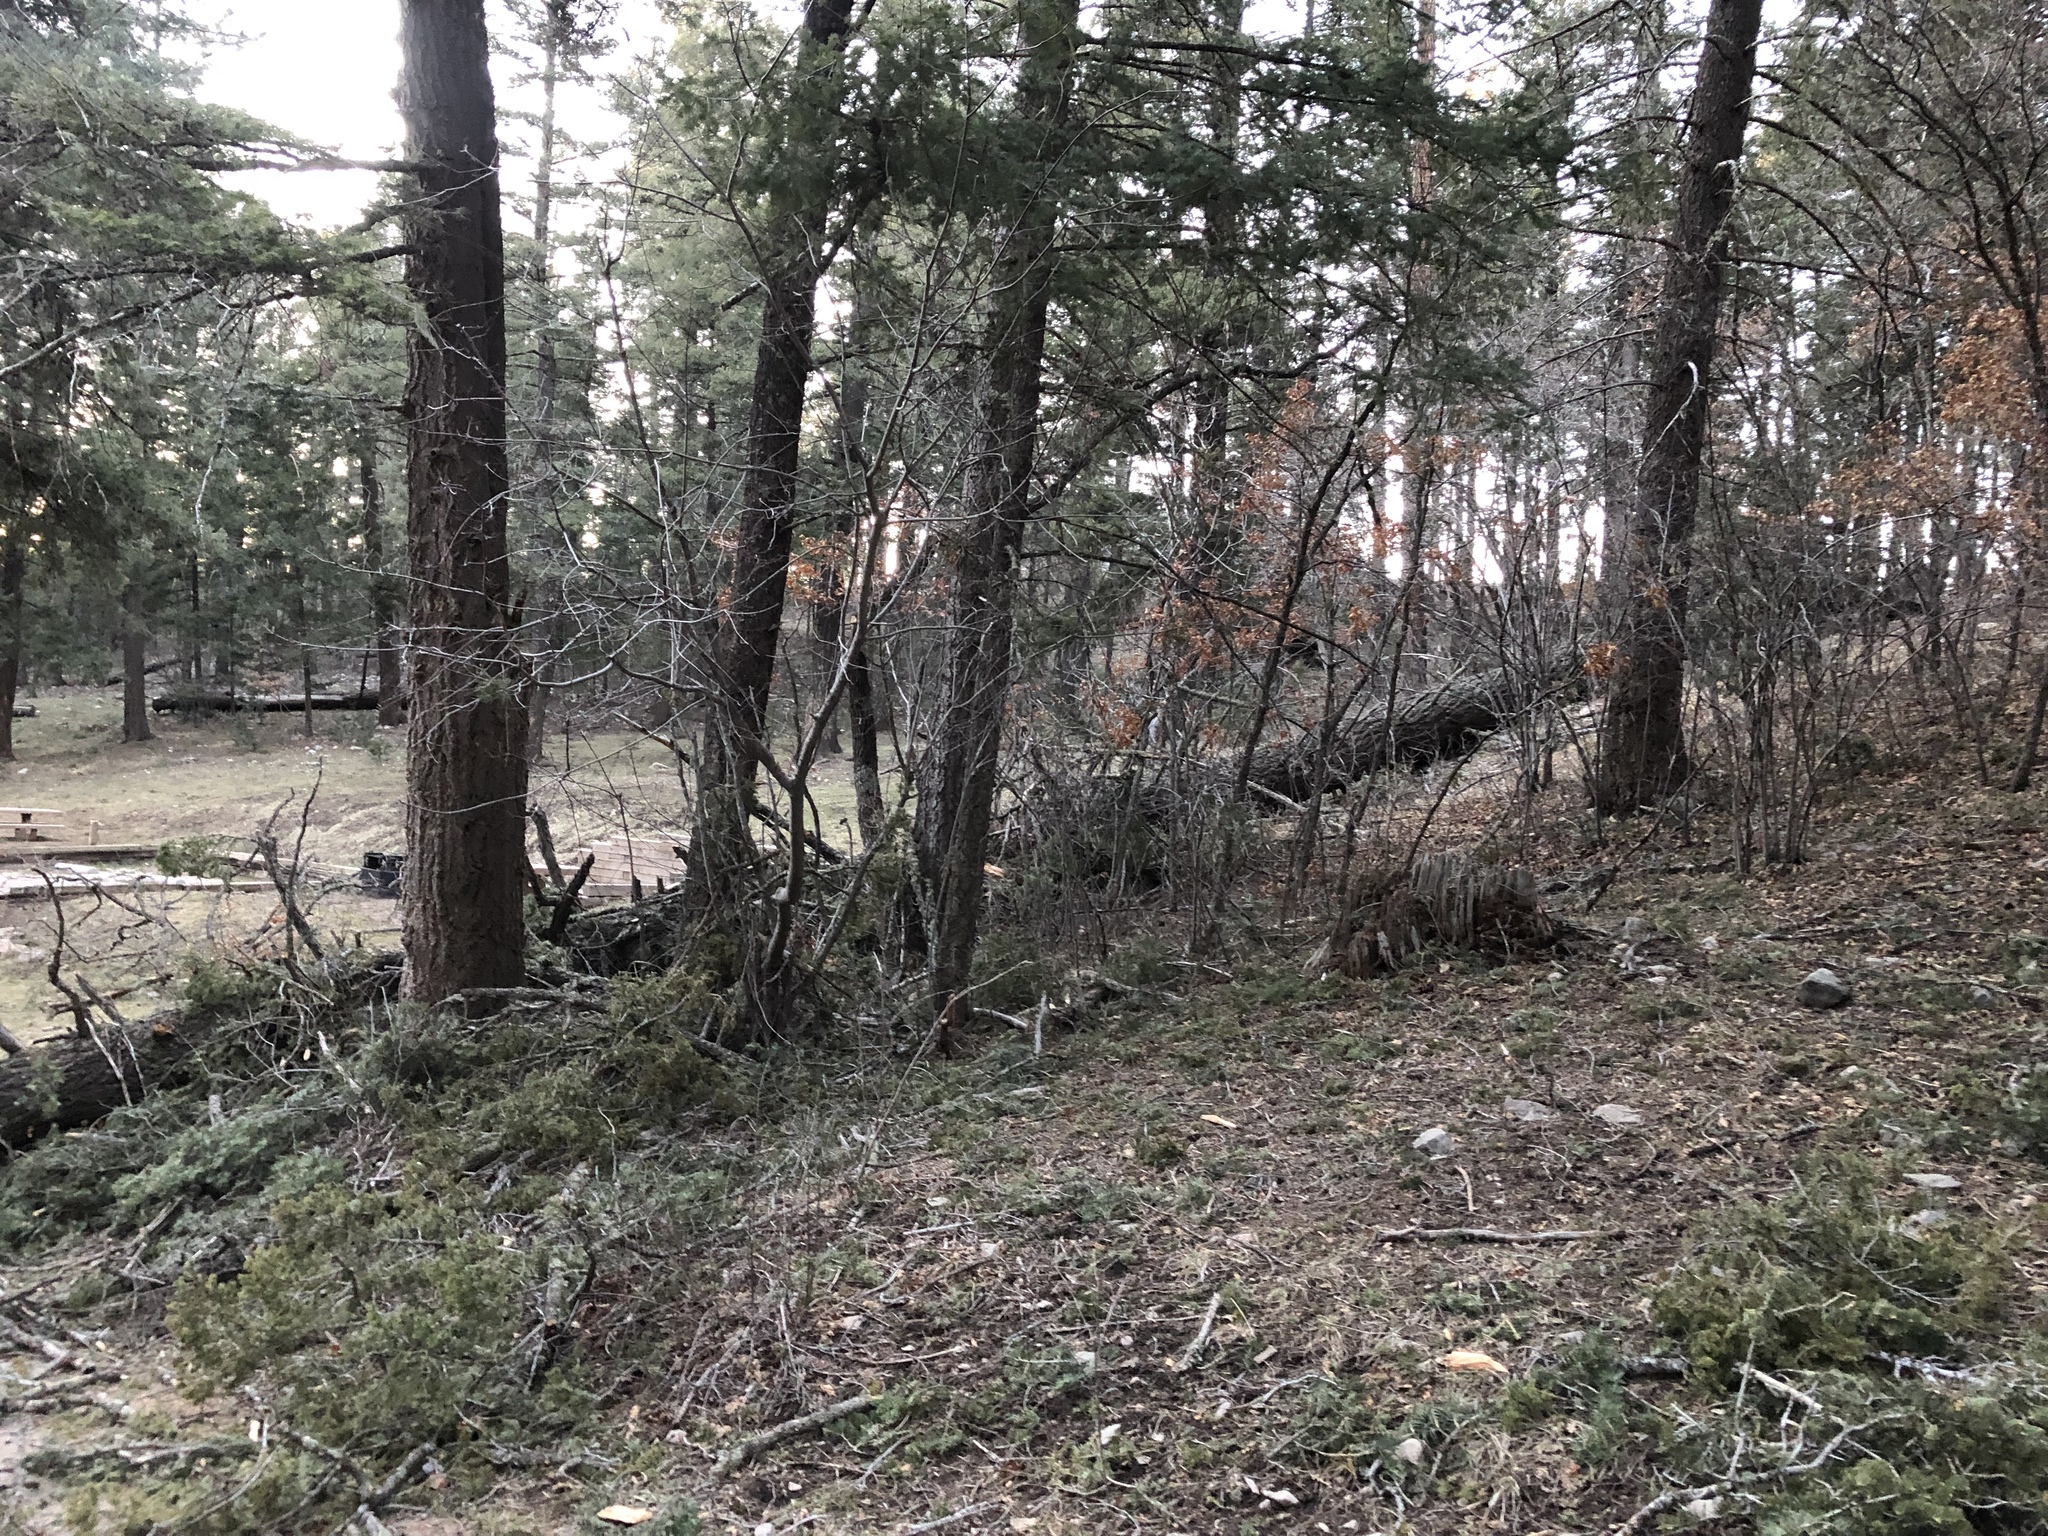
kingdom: Plantae
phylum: Tracheophyta
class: Pinopsida
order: Pinales
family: Pinaceae
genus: Pseudotsuga
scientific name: Pseudotsuga menziesii
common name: Douglas fir
